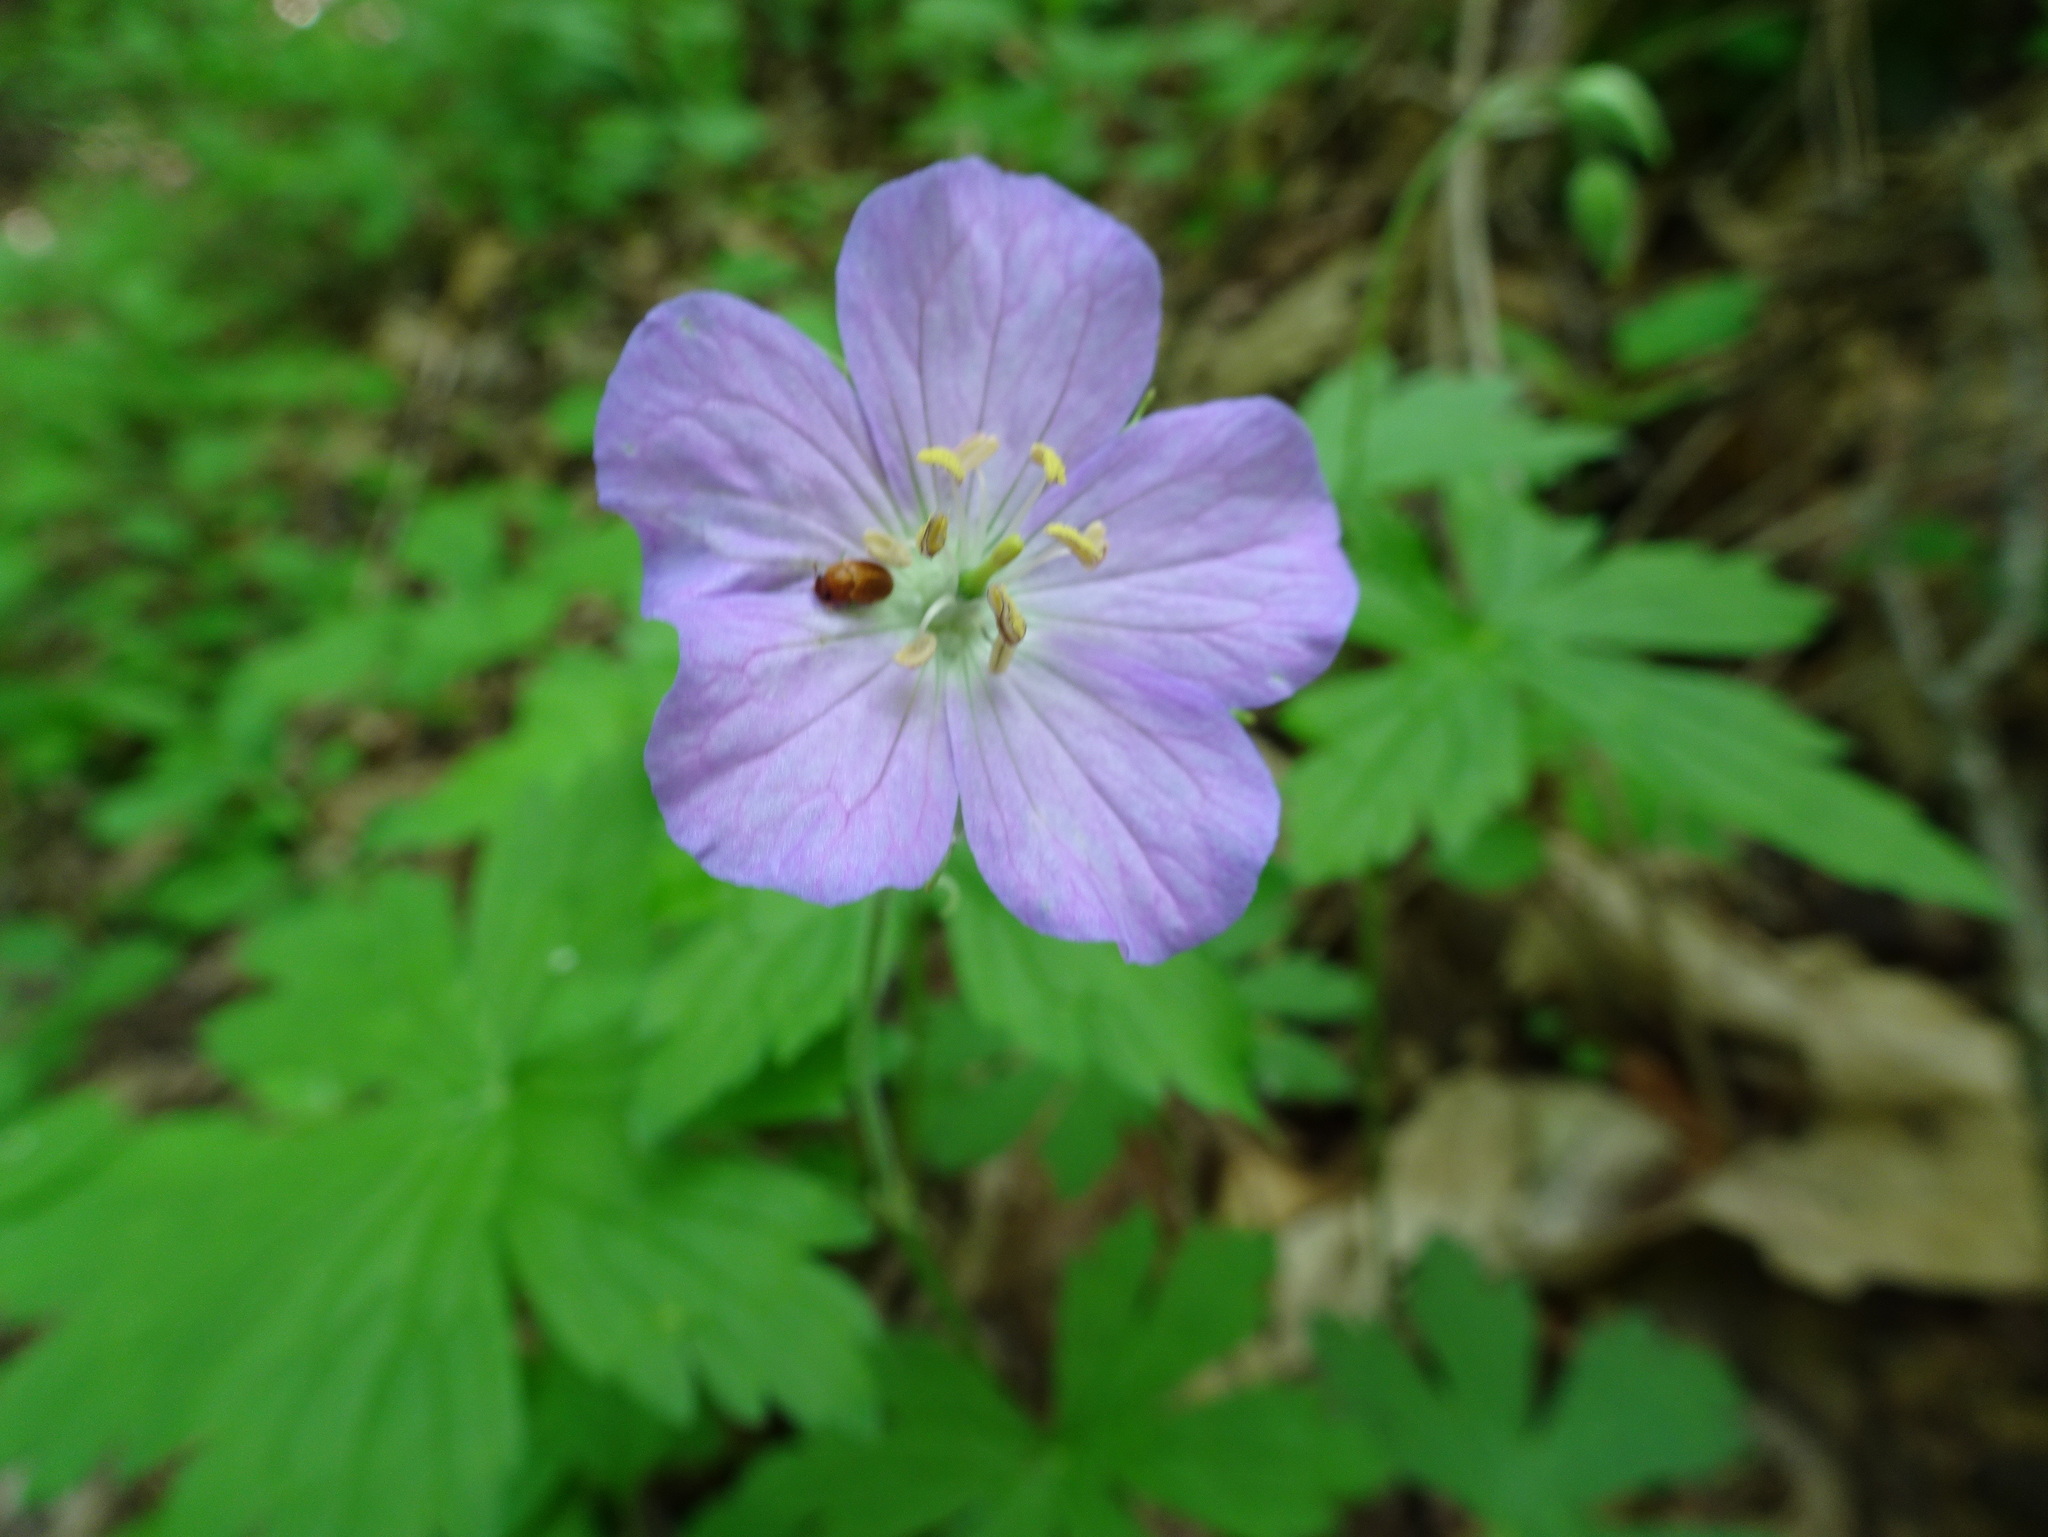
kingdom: Plantae
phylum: Tracheophyta
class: Magnoliopsida
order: Geraniales
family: Geraniaceae
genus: Geranium
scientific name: Geranium maculatum
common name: Spotted geranium
